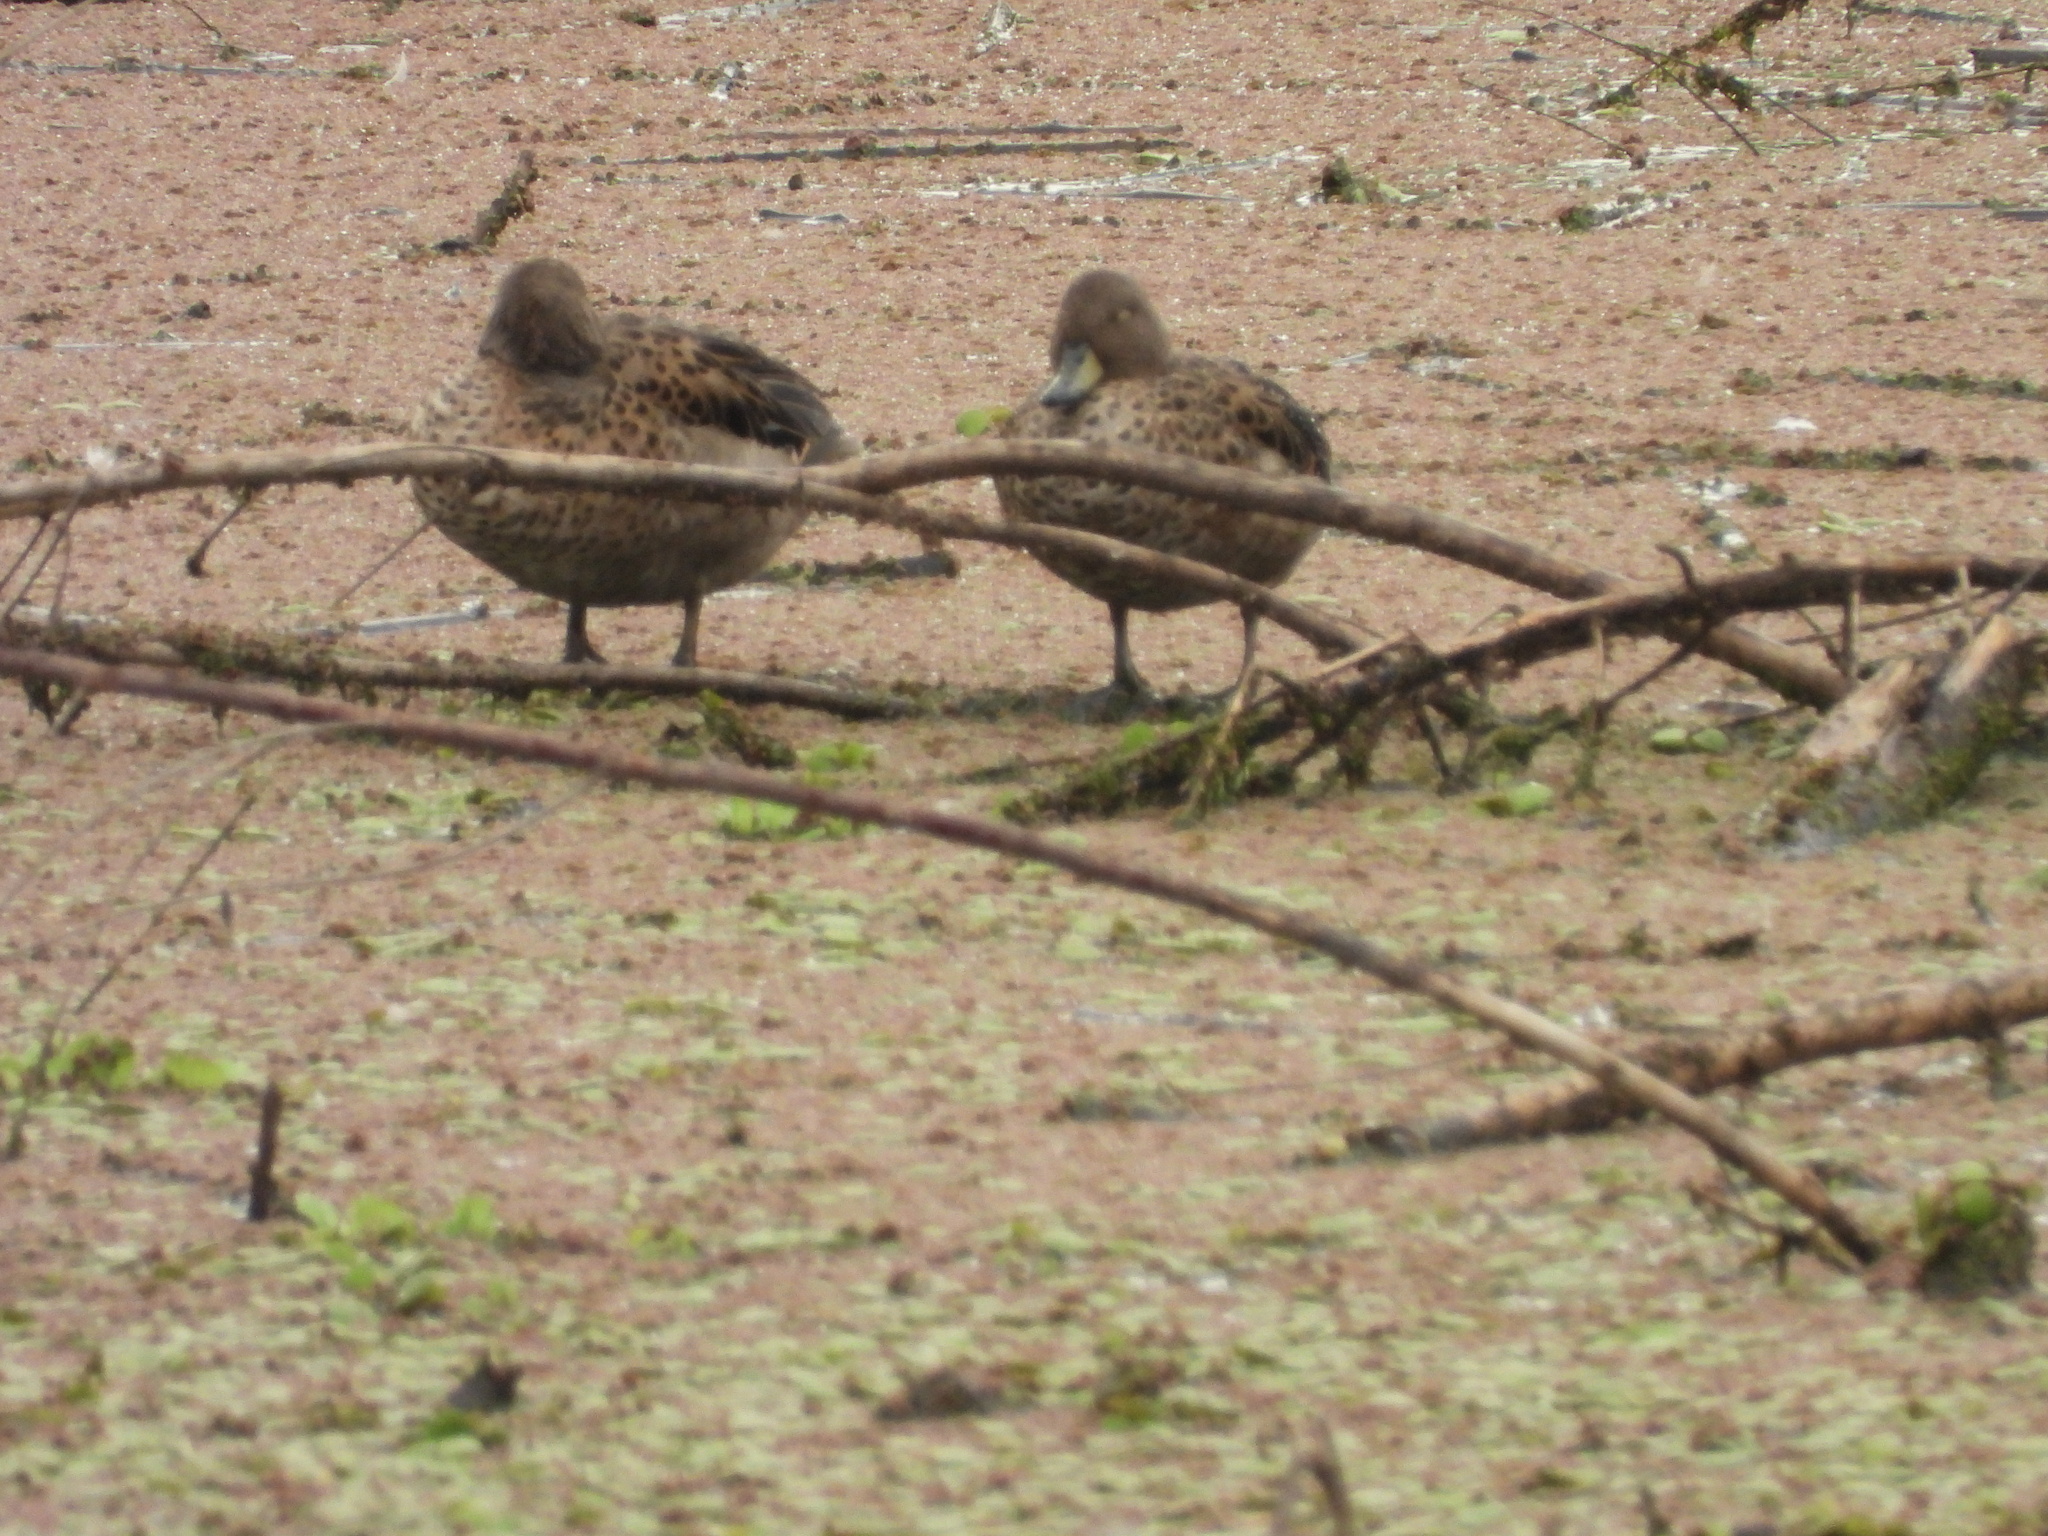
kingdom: Animalia
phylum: Chordata
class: Aves
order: Anseriformes
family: Anatidae
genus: Anas
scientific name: Anas flavirostris
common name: Yellow-billed teal
